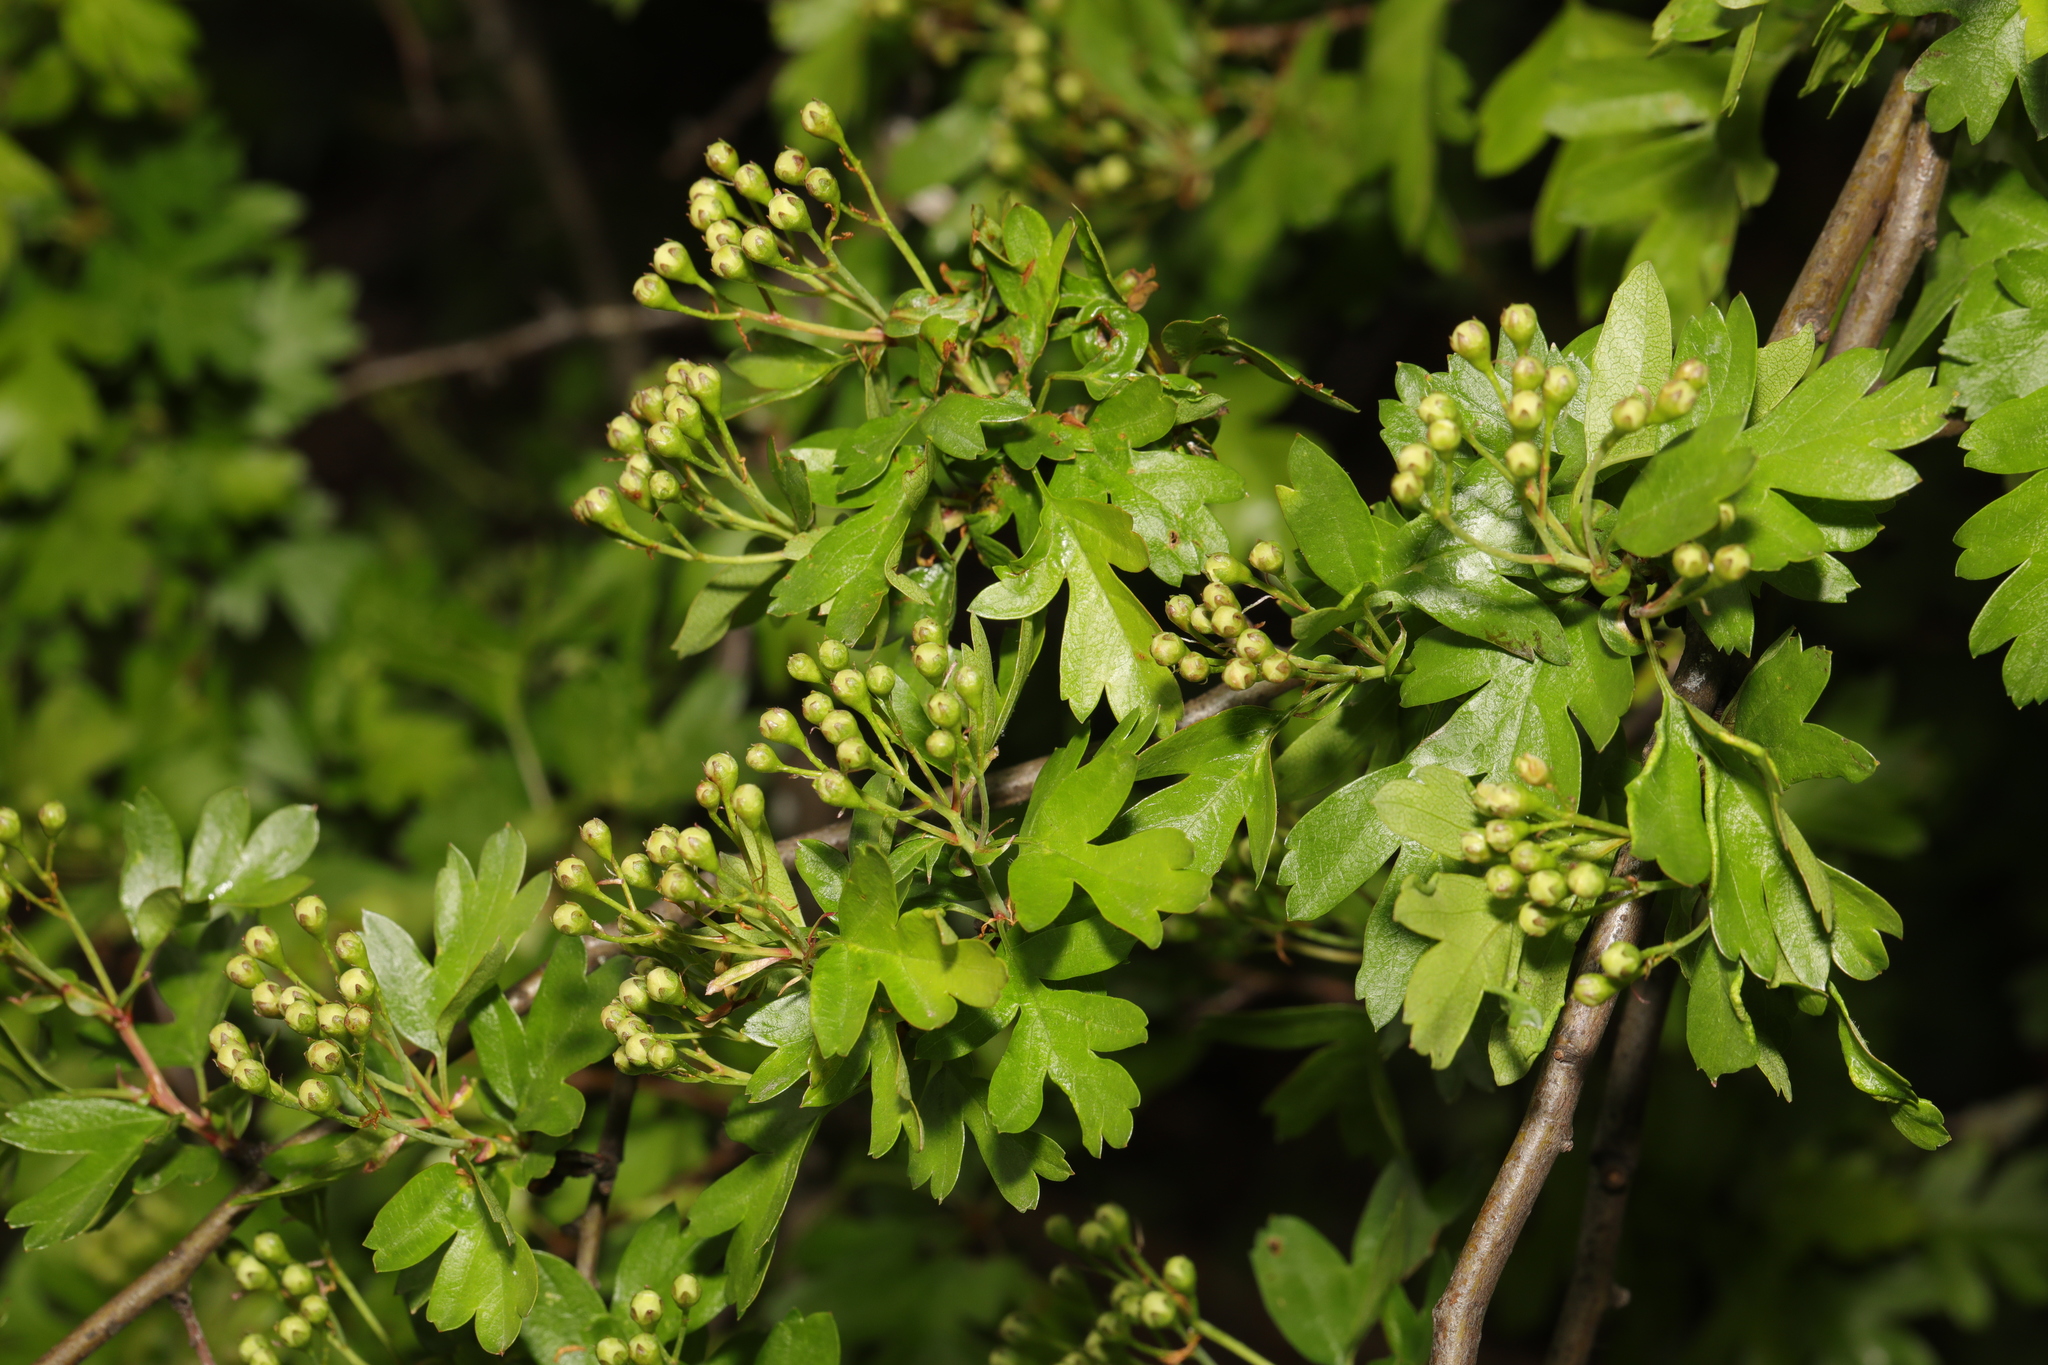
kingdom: Plantae
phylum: Tracheophyta
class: Magnoliopsida
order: Rosales
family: Rosaceae
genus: Crataegus
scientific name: Crataegus monogyna
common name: Hawthorn
